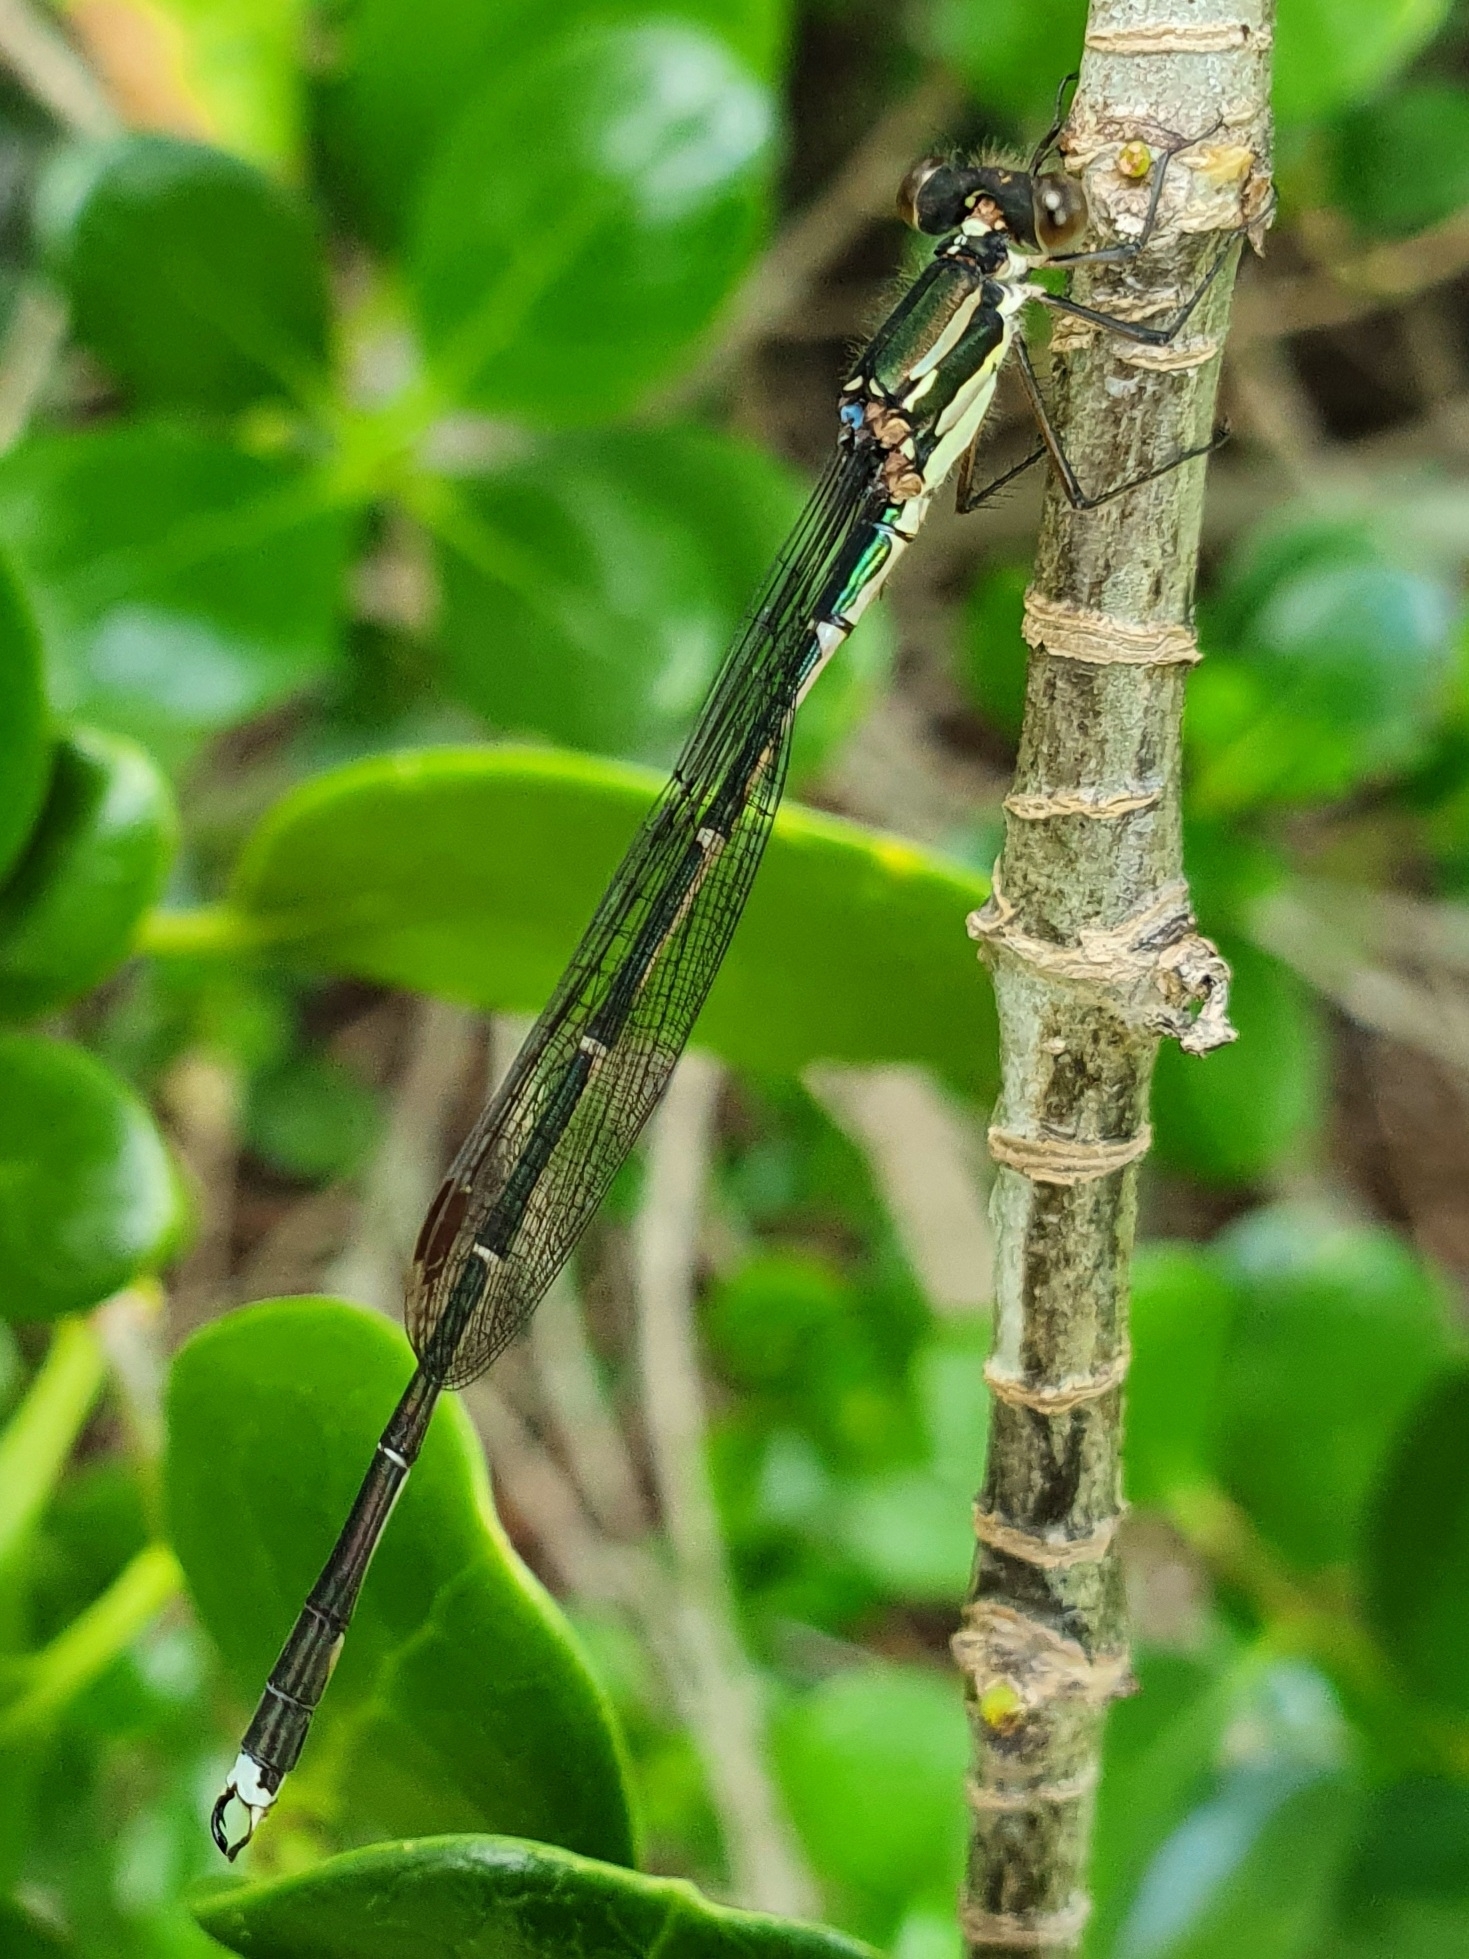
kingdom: Animalia
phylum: Arthropoda
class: Insecta
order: Odonata
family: Lestidae
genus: Austrolestes
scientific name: Austrolestes colensonis
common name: Blue damselfly
